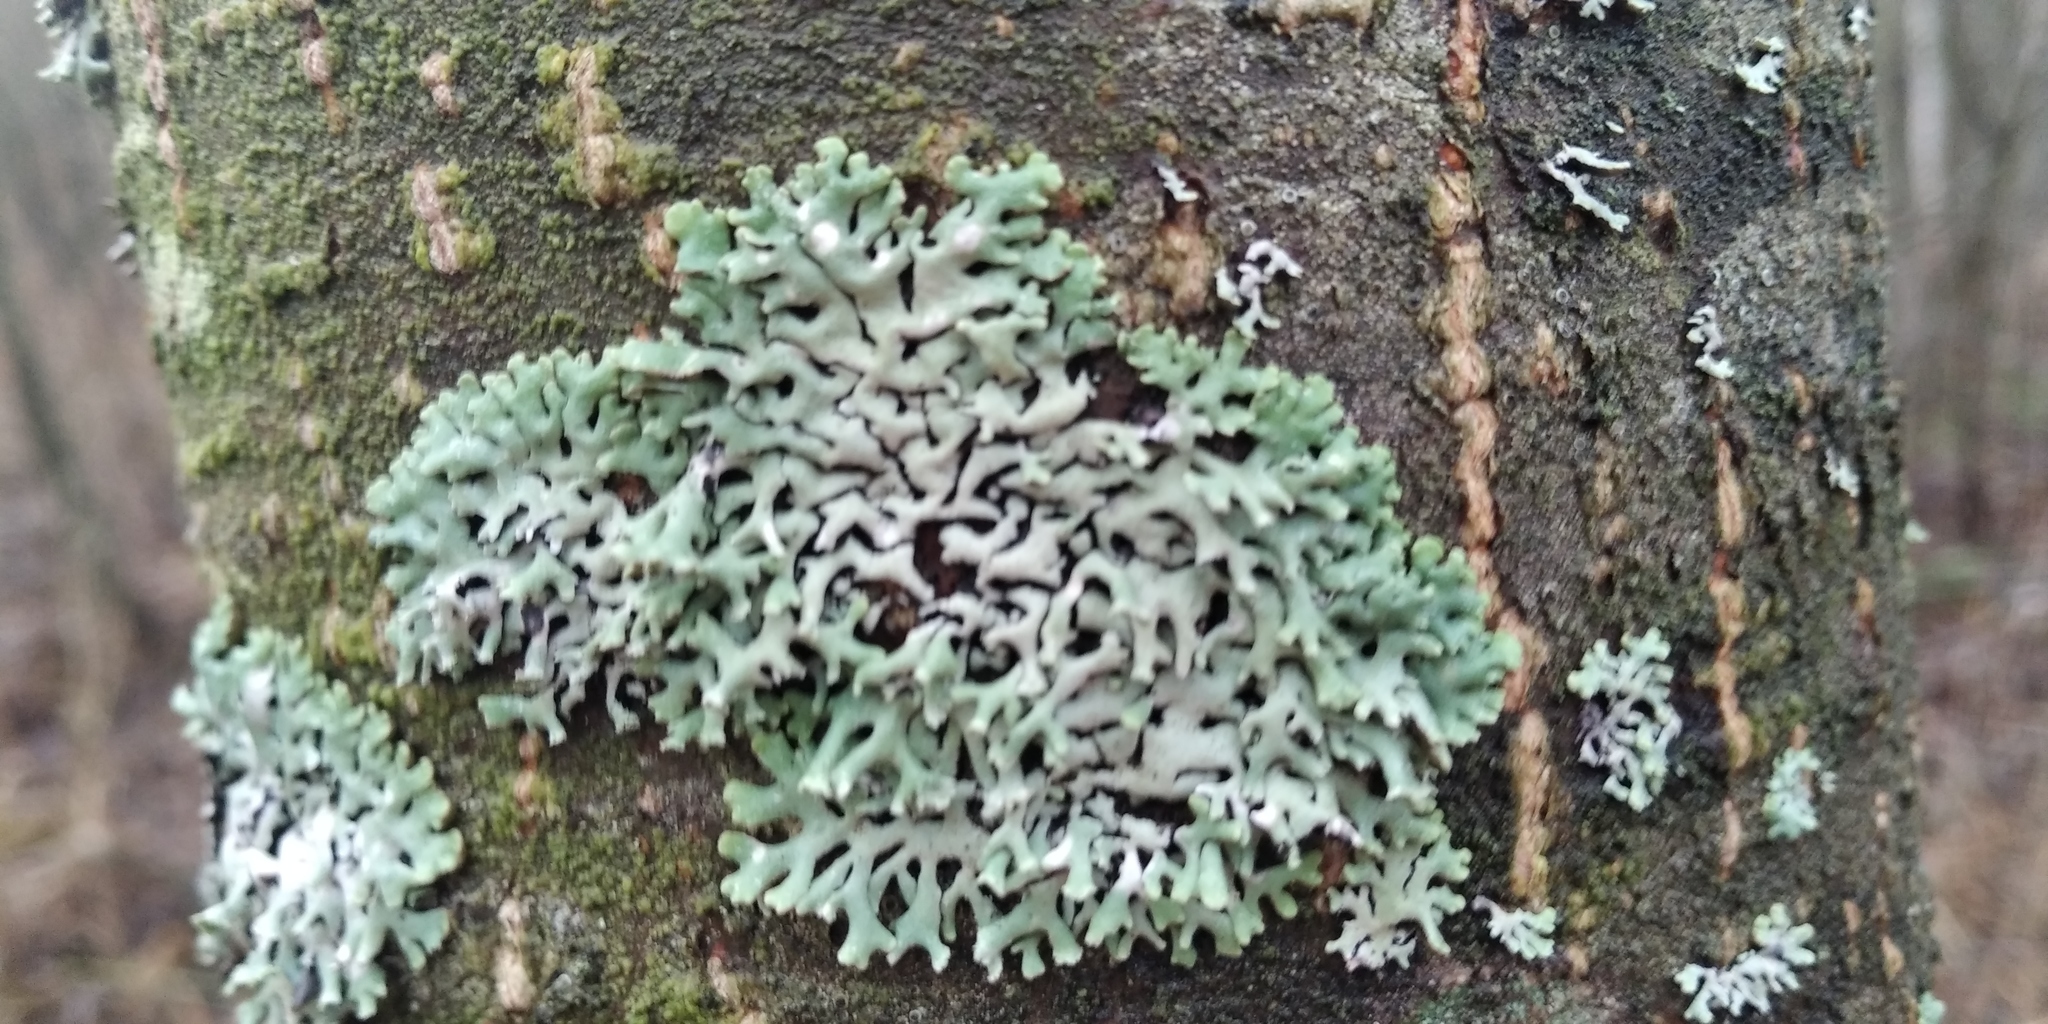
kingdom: Fungi
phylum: Ascomycota
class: Lecanoromycetes
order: Lecanorales
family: Parmeliaceae
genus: Hypogymnia
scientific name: Hypogymnia physodes
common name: Dark crottle
